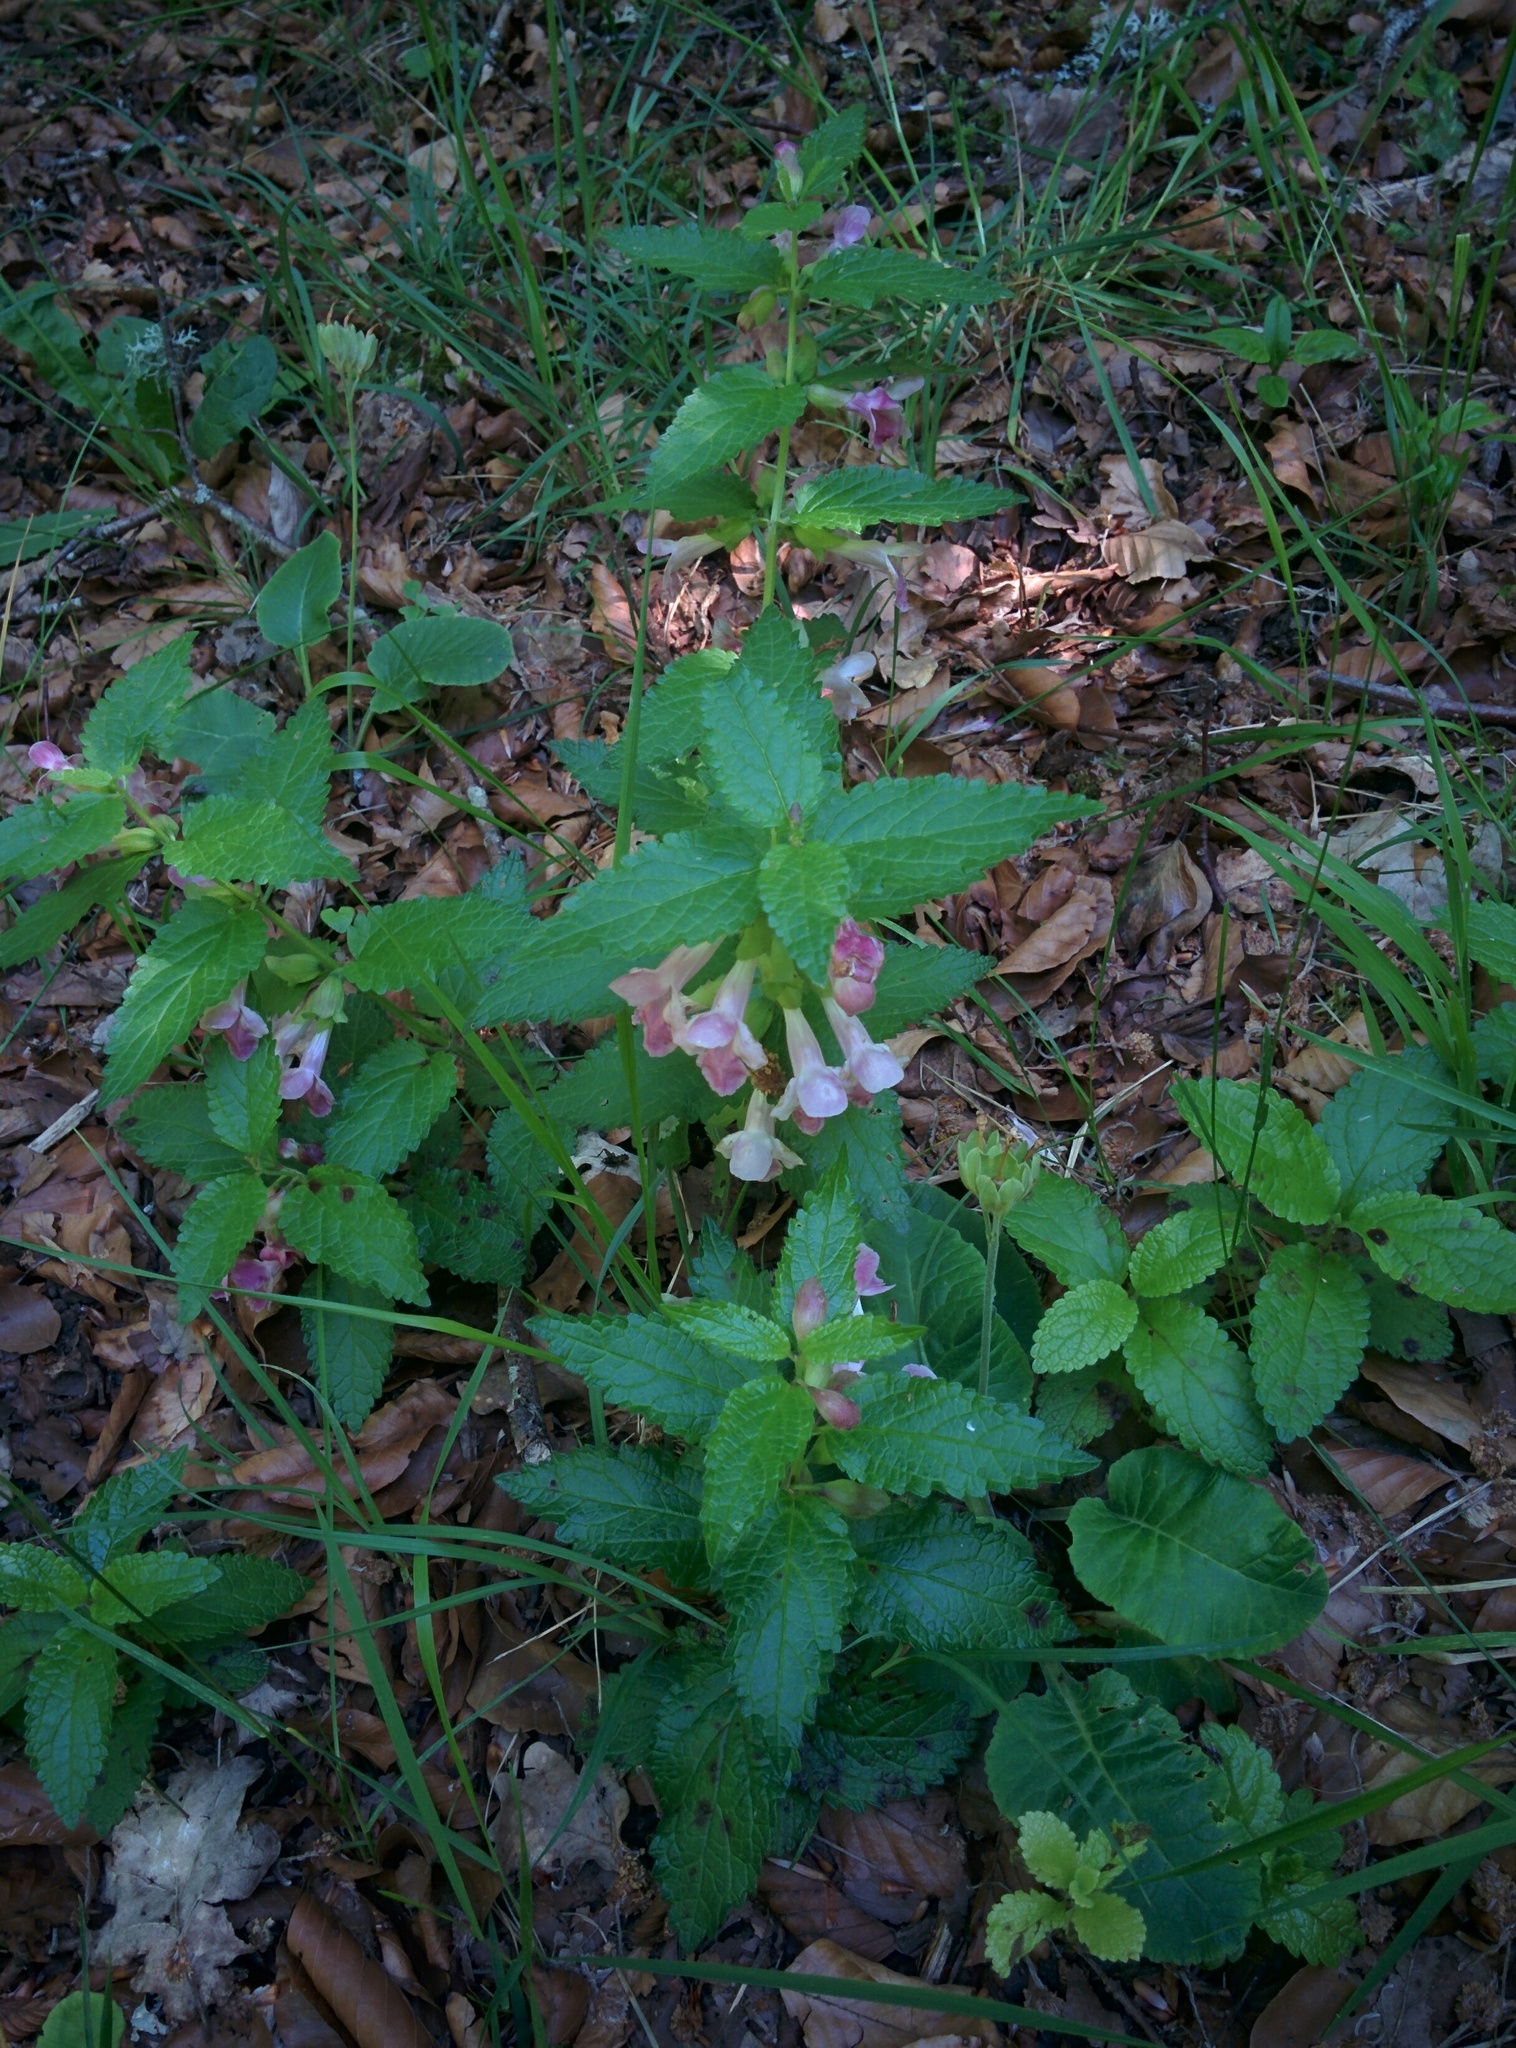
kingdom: Plantae
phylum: Tracheophyta
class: Magnoliopsida
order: Lamiales
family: Lamiaceae
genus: Melittis
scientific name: Melittis melissophyllum
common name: Bastard balm
